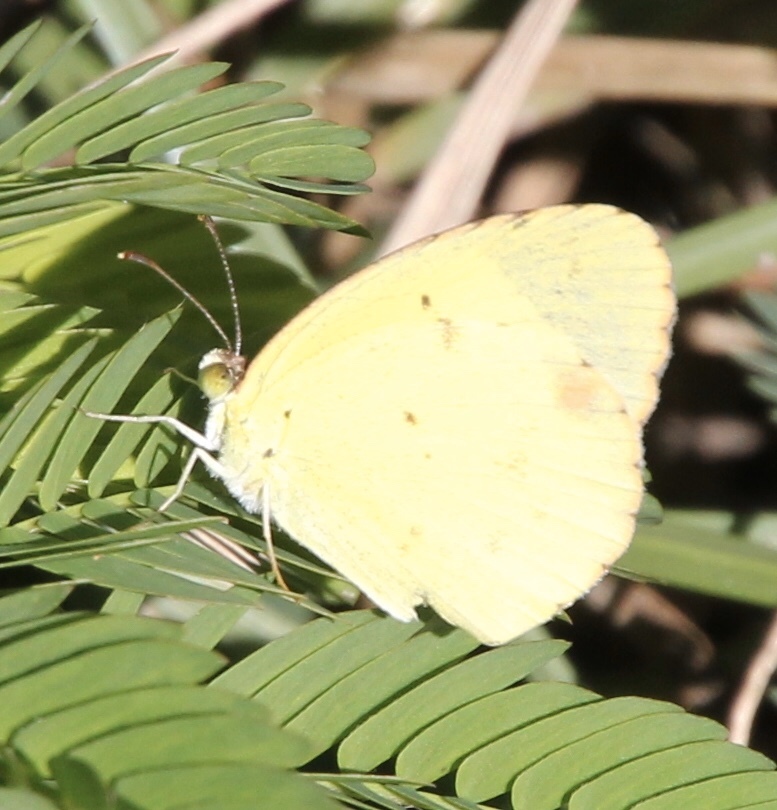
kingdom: Animalia
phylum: Arthropoda
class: Insecta
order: Lepidoptera
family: Pieridae
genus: Pyrisitia
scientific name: Pyrisitia lisa
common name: Little yellow
